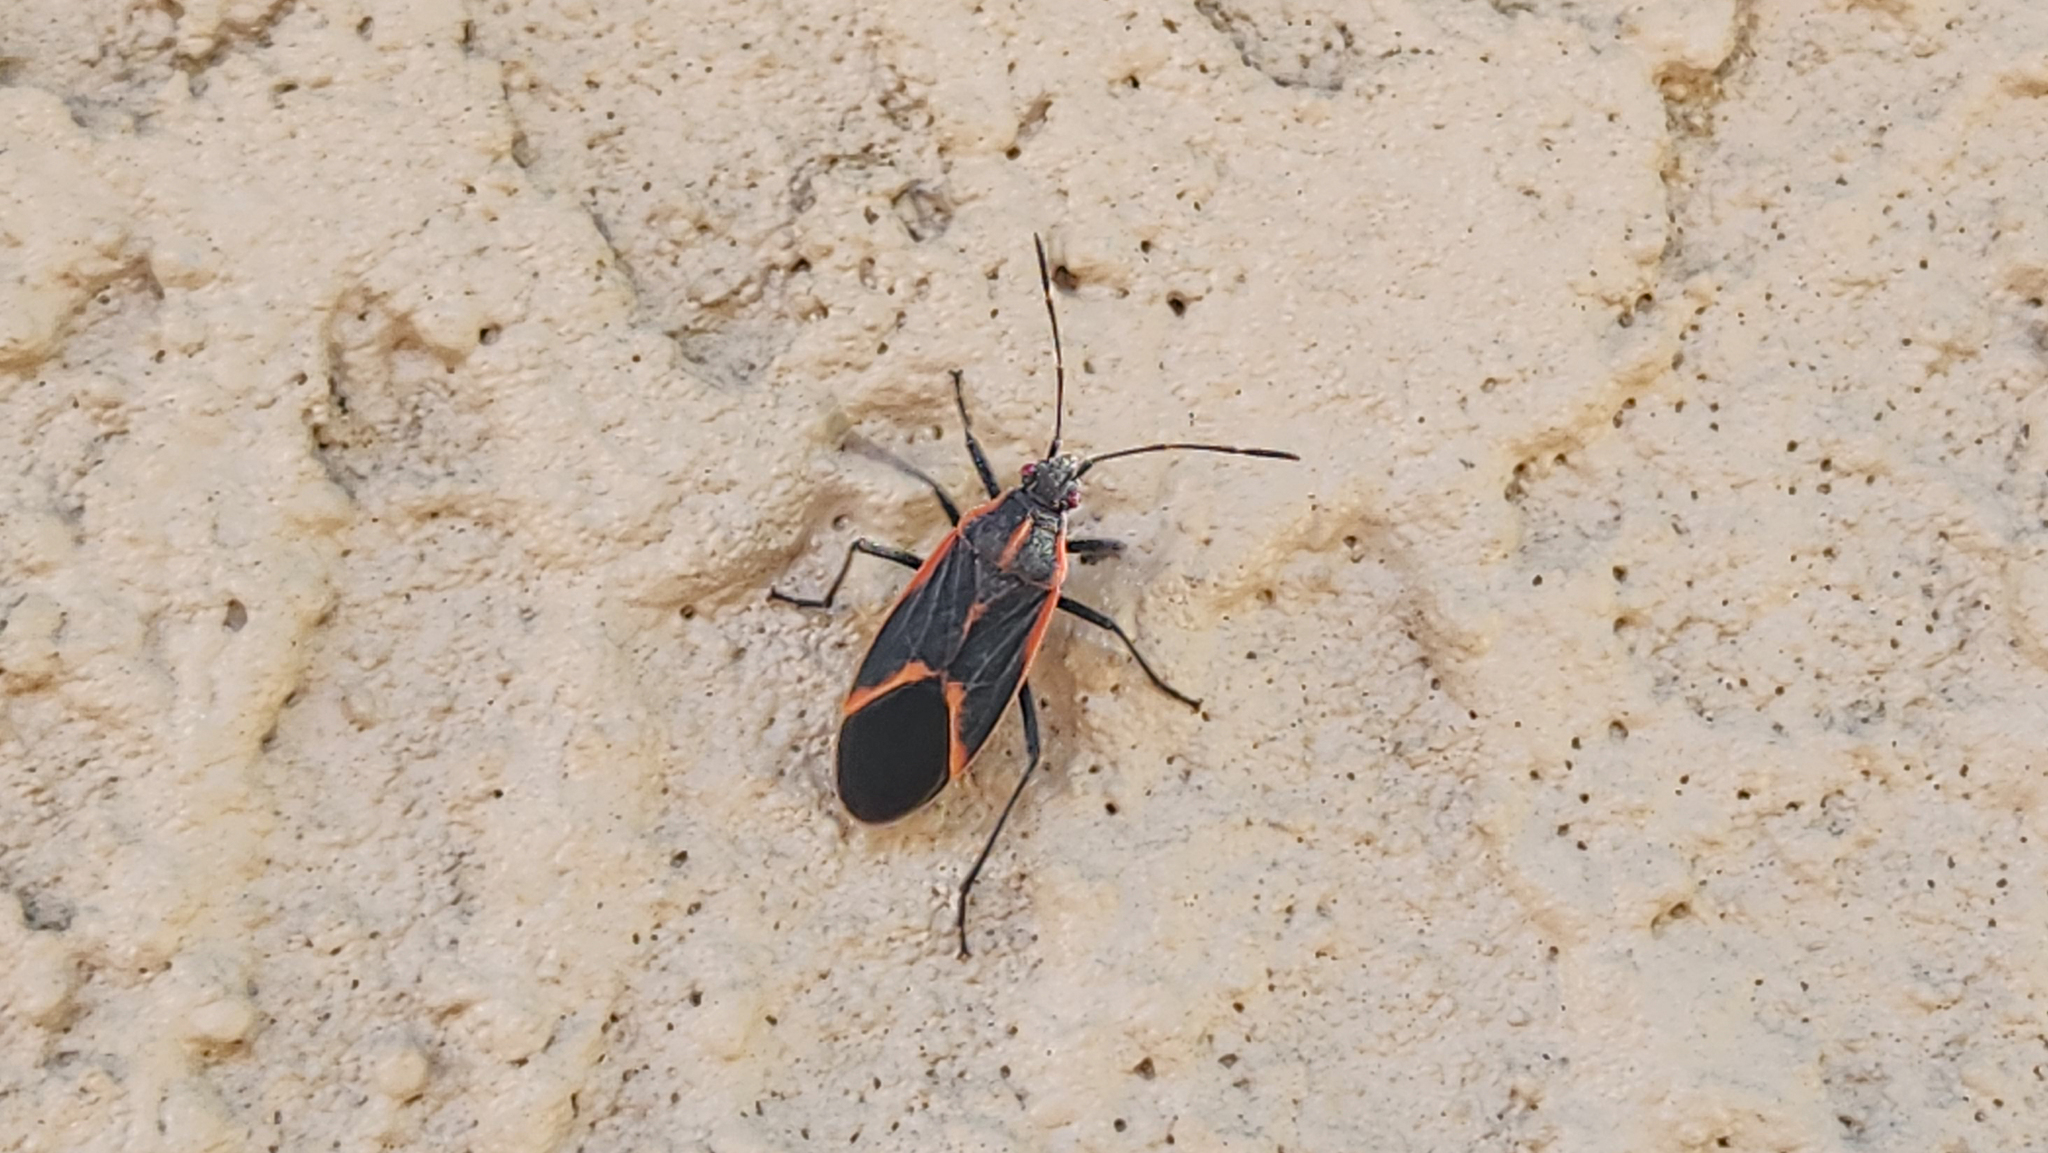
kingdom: Animalia
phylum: Arthropoda
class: Insecta
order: Hemiptera
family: Rhopalidae
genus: Boisea
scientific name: Boisea trivittata
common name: Boxelder bug
